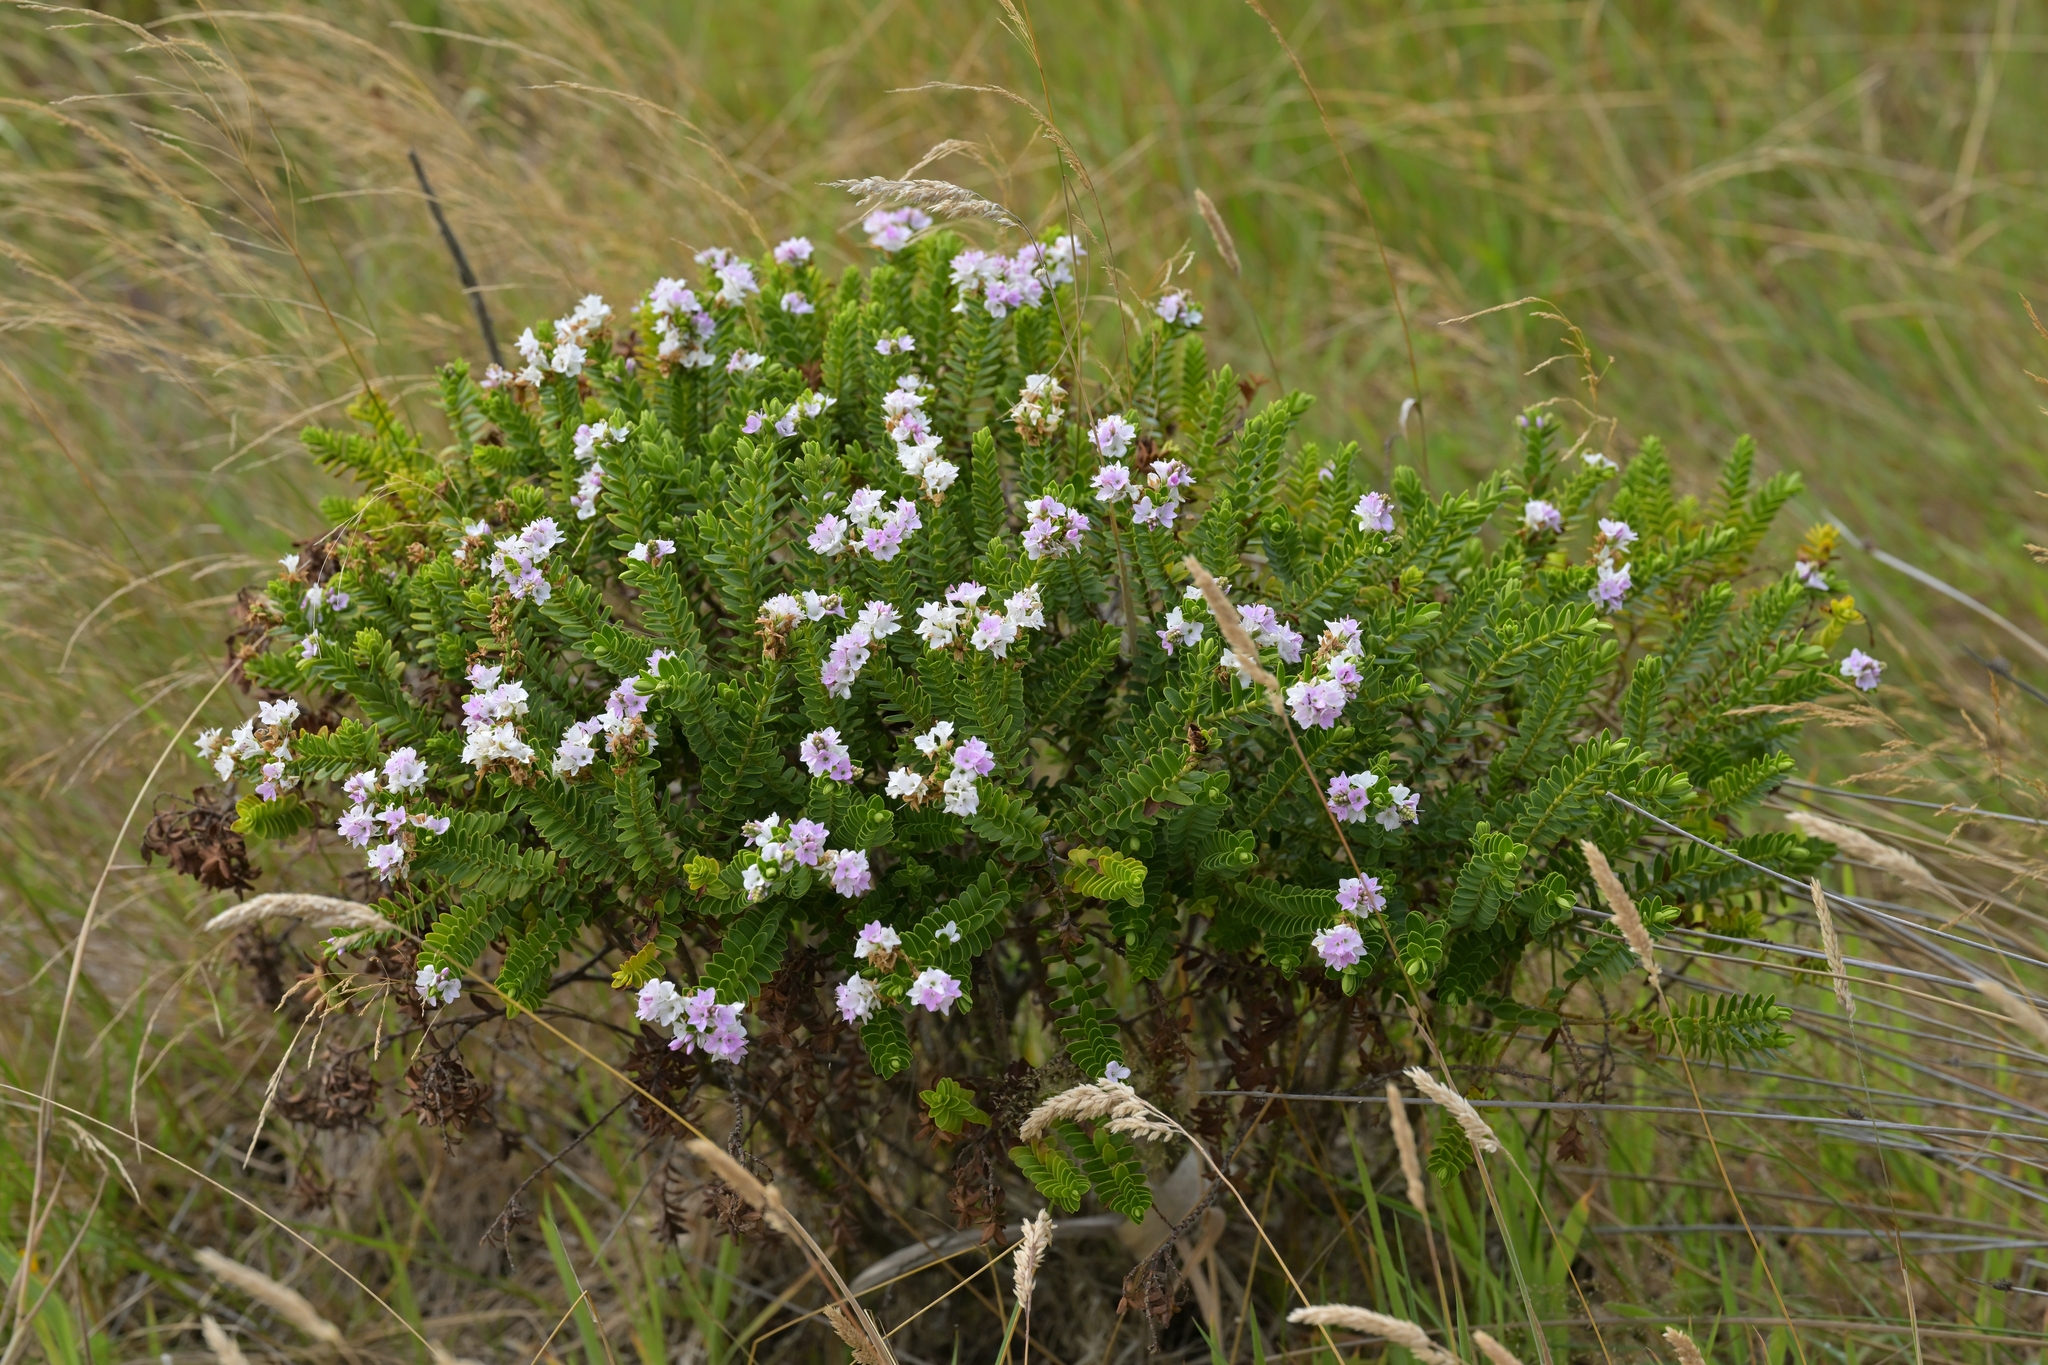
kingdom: Plantae
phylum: Tracheophyta
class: Magnoliopsida
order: Lamiales
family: Plantaginaceae
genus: Veronica
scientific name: Veronica elliptica
